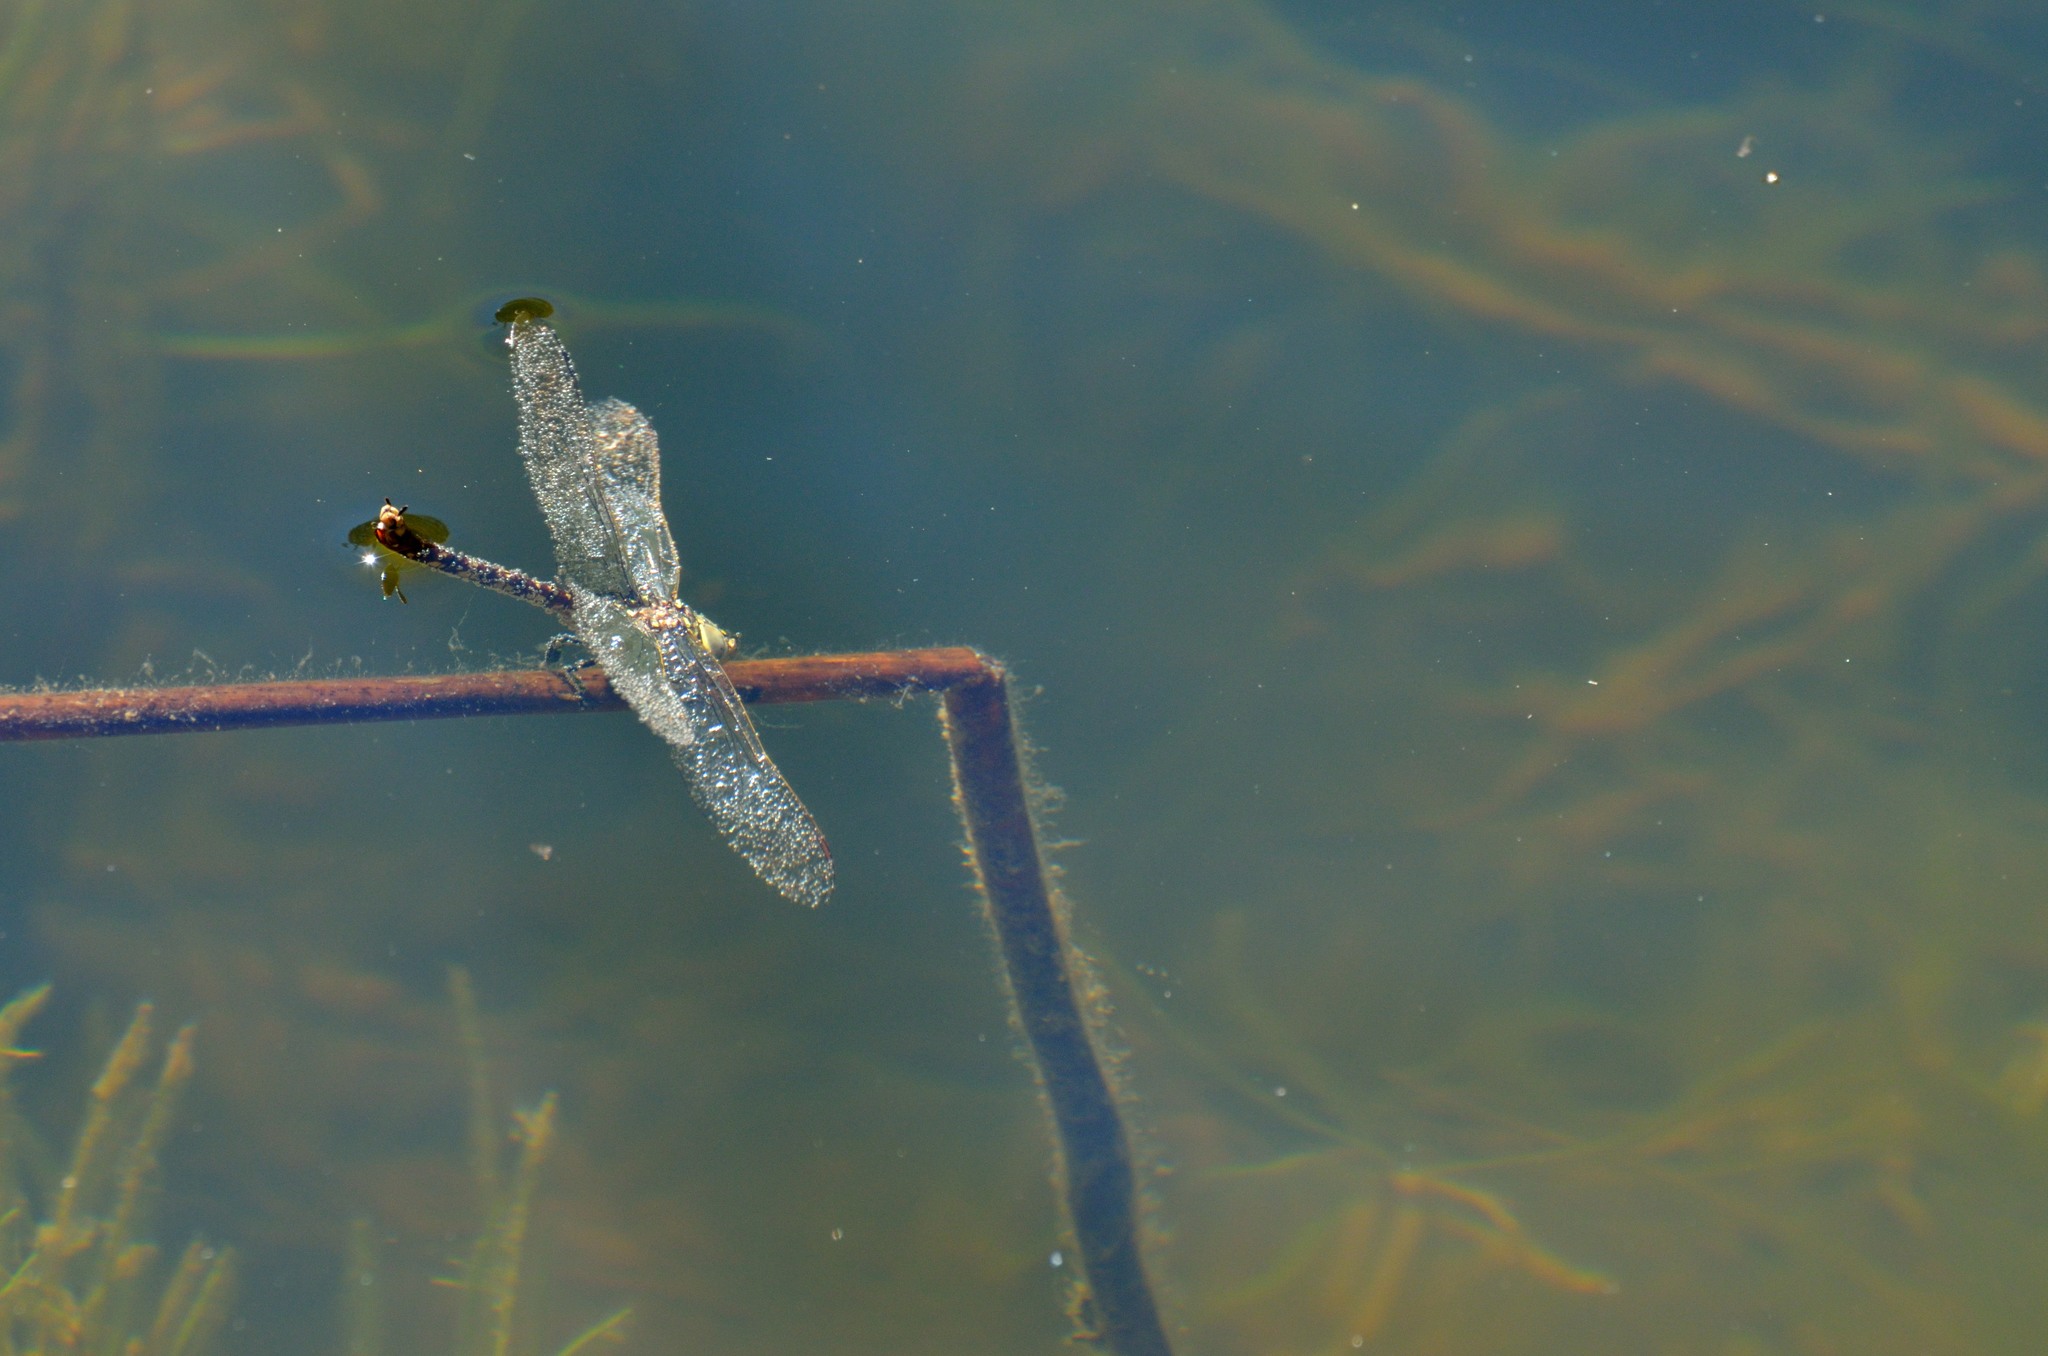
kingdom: Animalia
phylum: Arthropoda
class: Insecta
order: Odonata
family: Aeshnidae
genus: Aeshna
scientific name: Aeshna brevistyla
